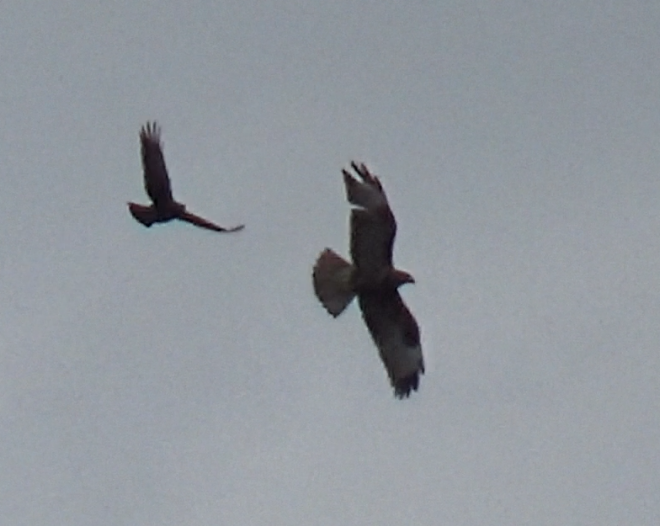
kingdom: Animalia
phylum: Chordata
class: Aves
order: Accipitriformes
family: Accipitridae
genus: Buteo
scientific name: Buteo buteo
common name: Common buzzard
